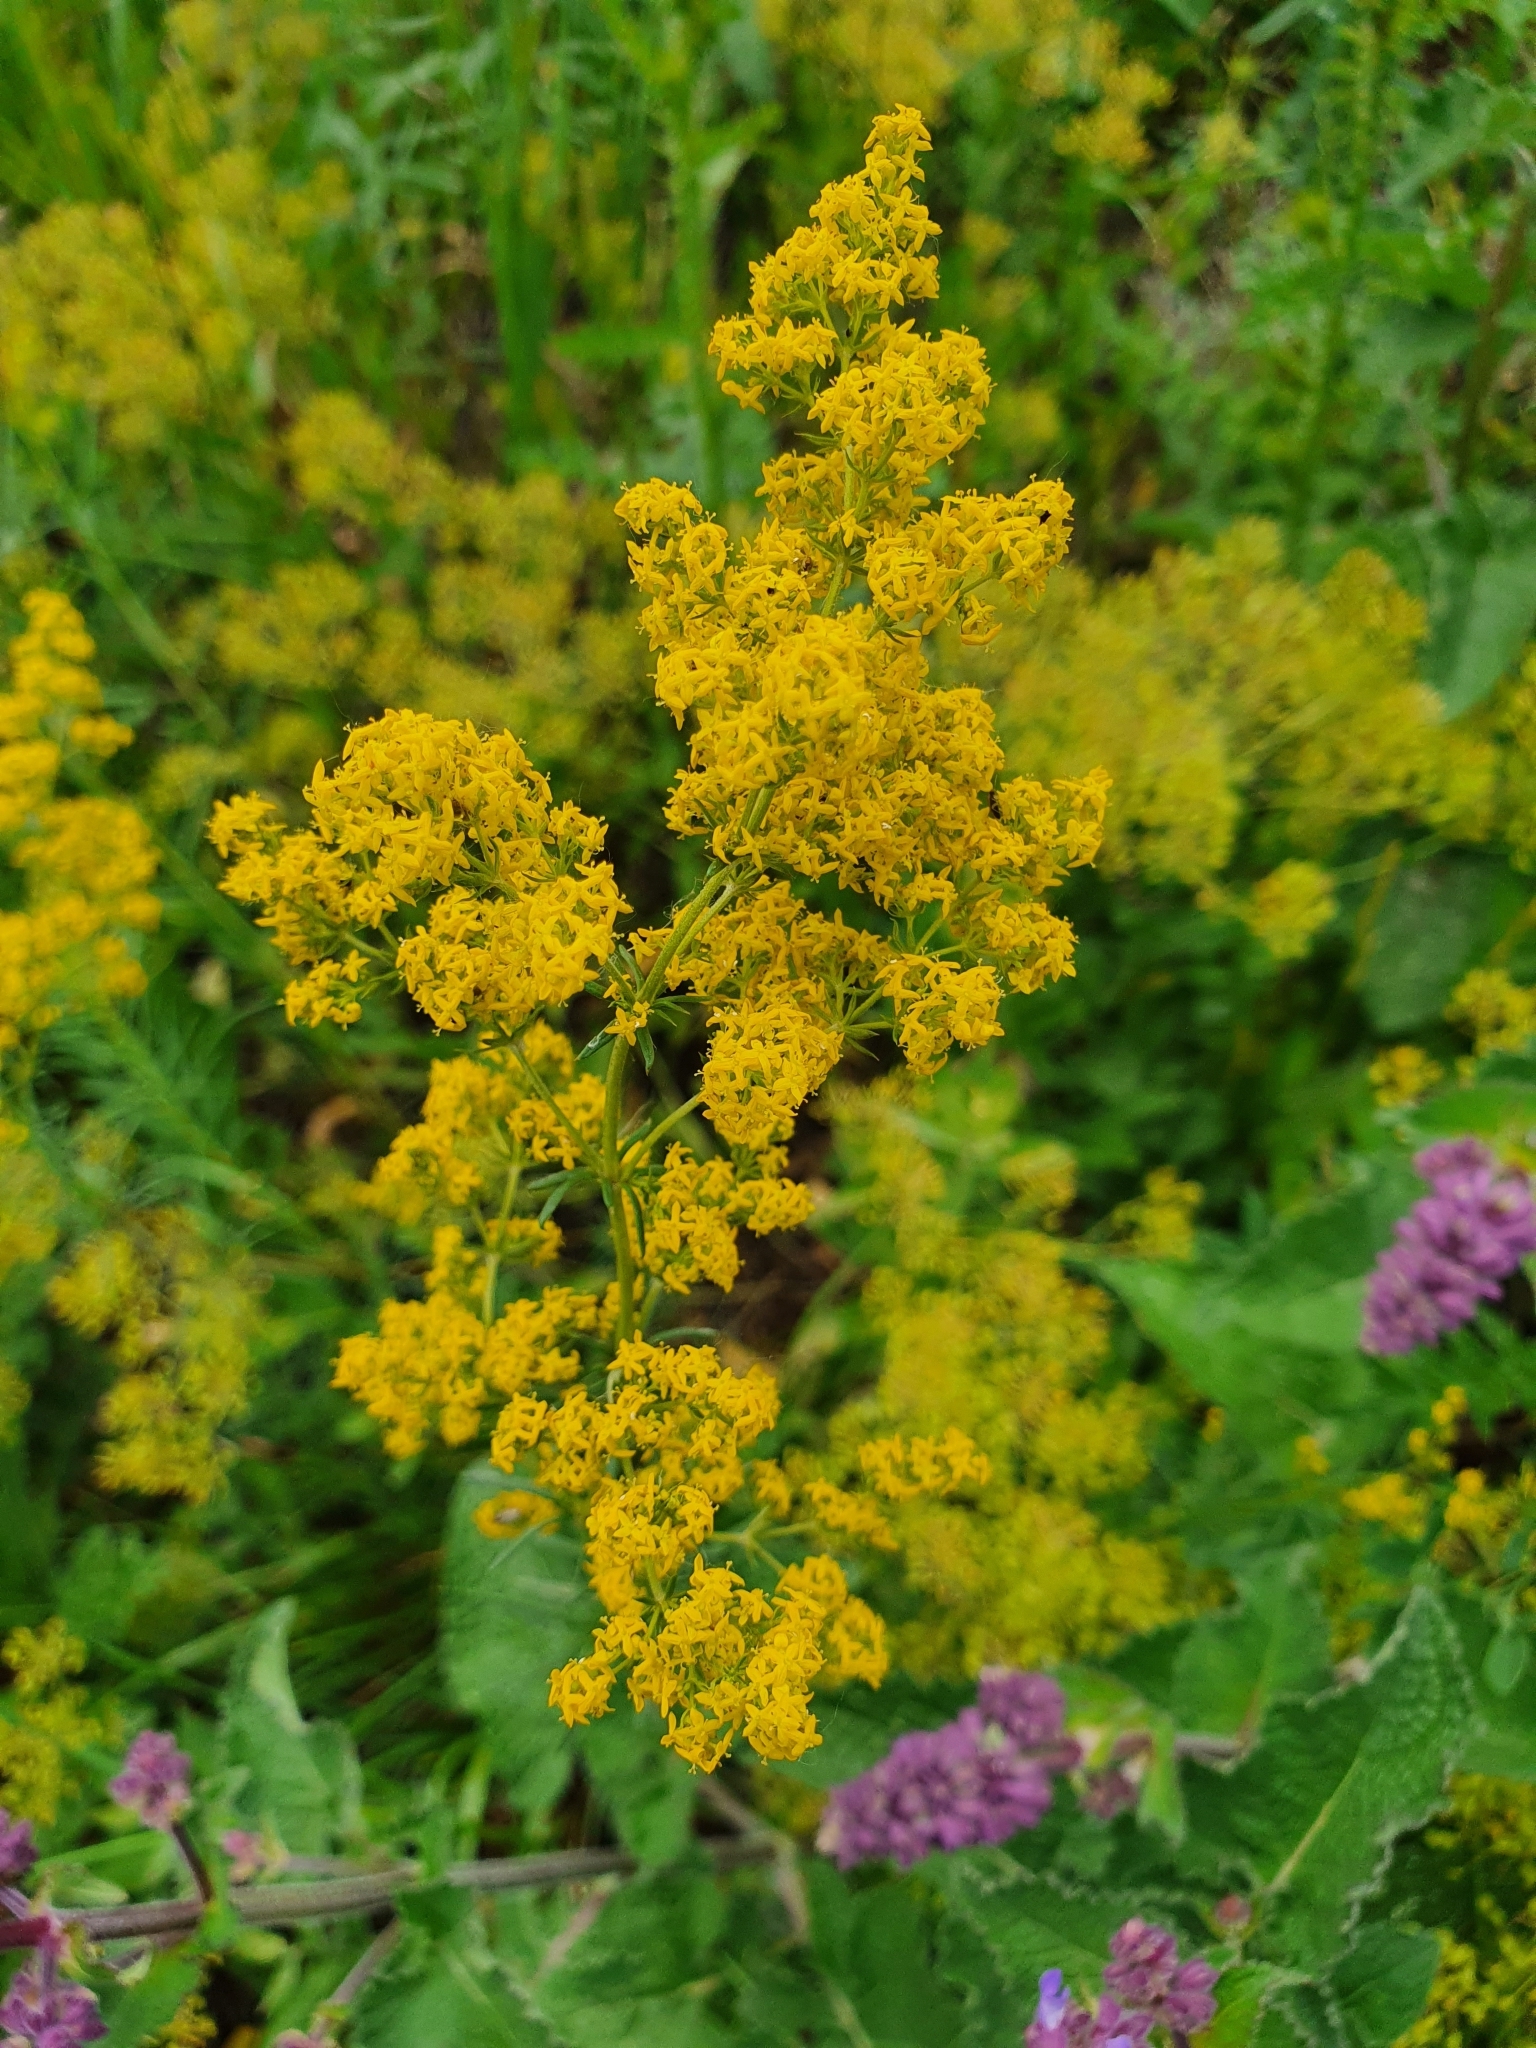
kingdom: Plantae
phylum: Tracheophyta
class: Magnoliopsida
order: Gentianales
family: Rubiaceae
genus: Galium
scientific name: Galium verum
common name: Lady's bedstraw
